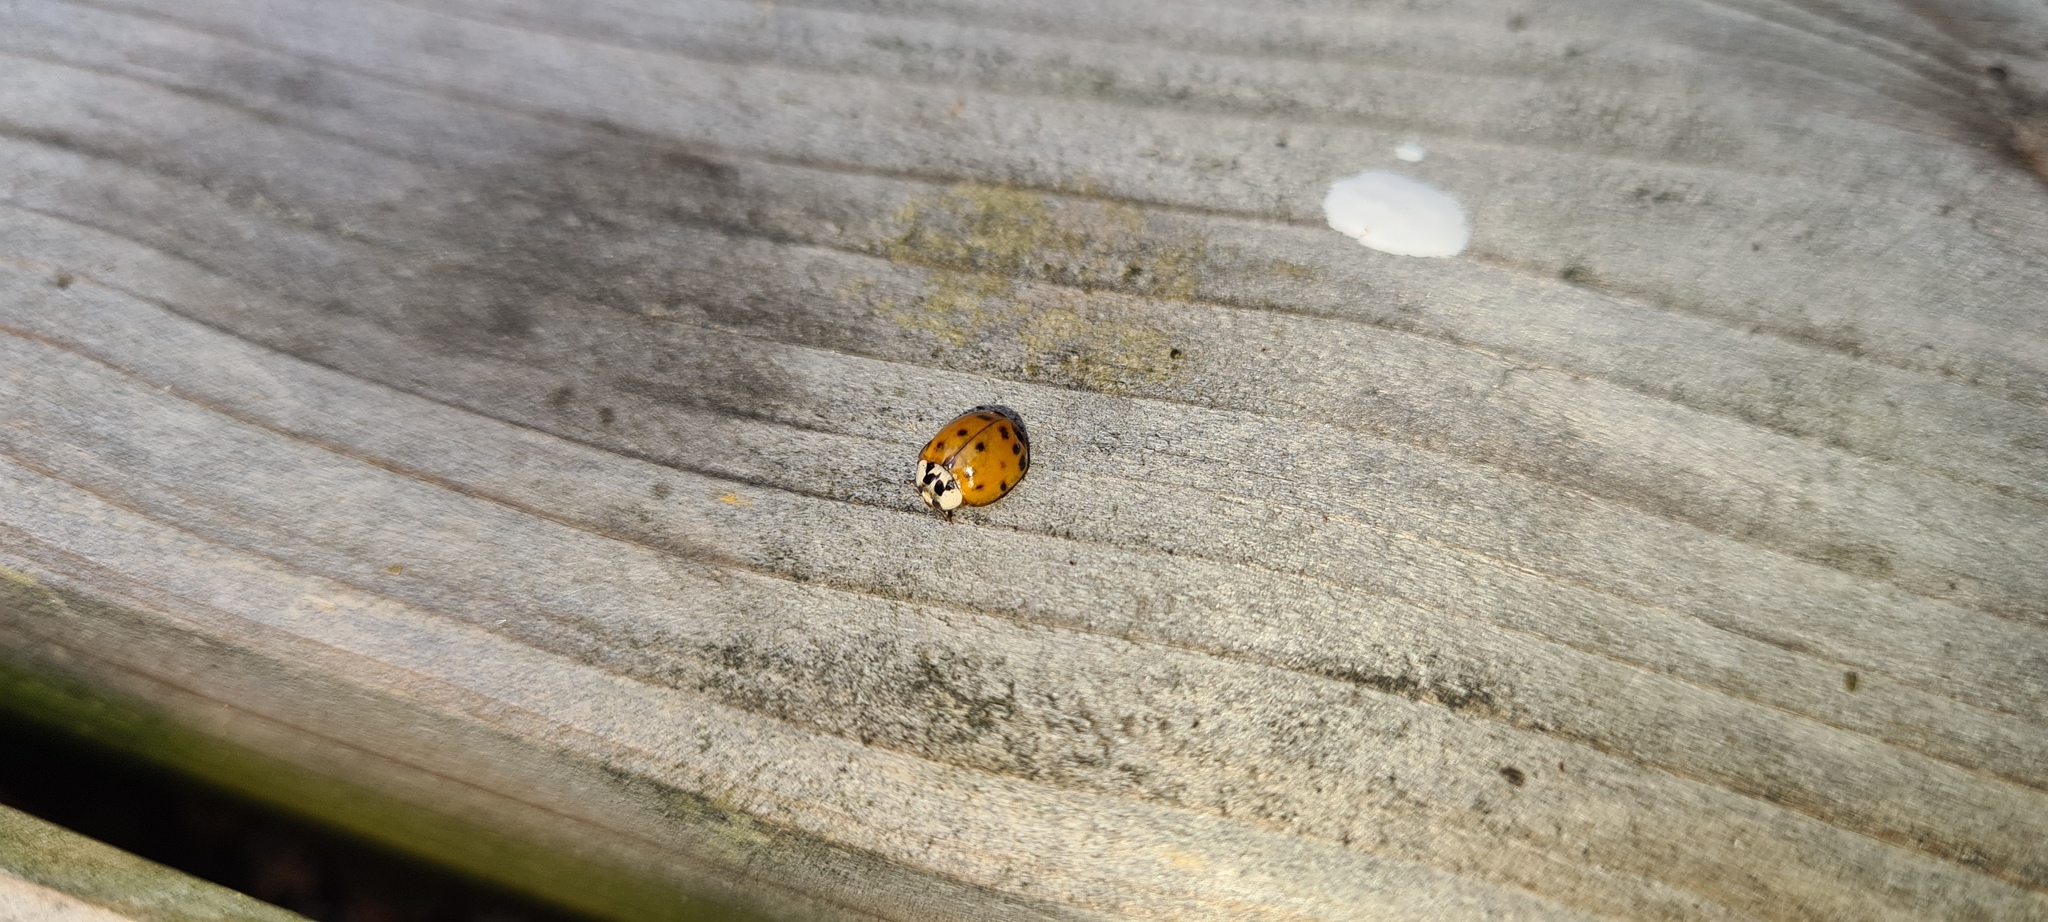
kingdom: Animalia
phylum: Arthropoda
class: Insecta
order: Coleoptera
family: Coccinellidae
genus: Harmonia
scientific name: Harmonia axyridis
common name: Harlequin ladybird
